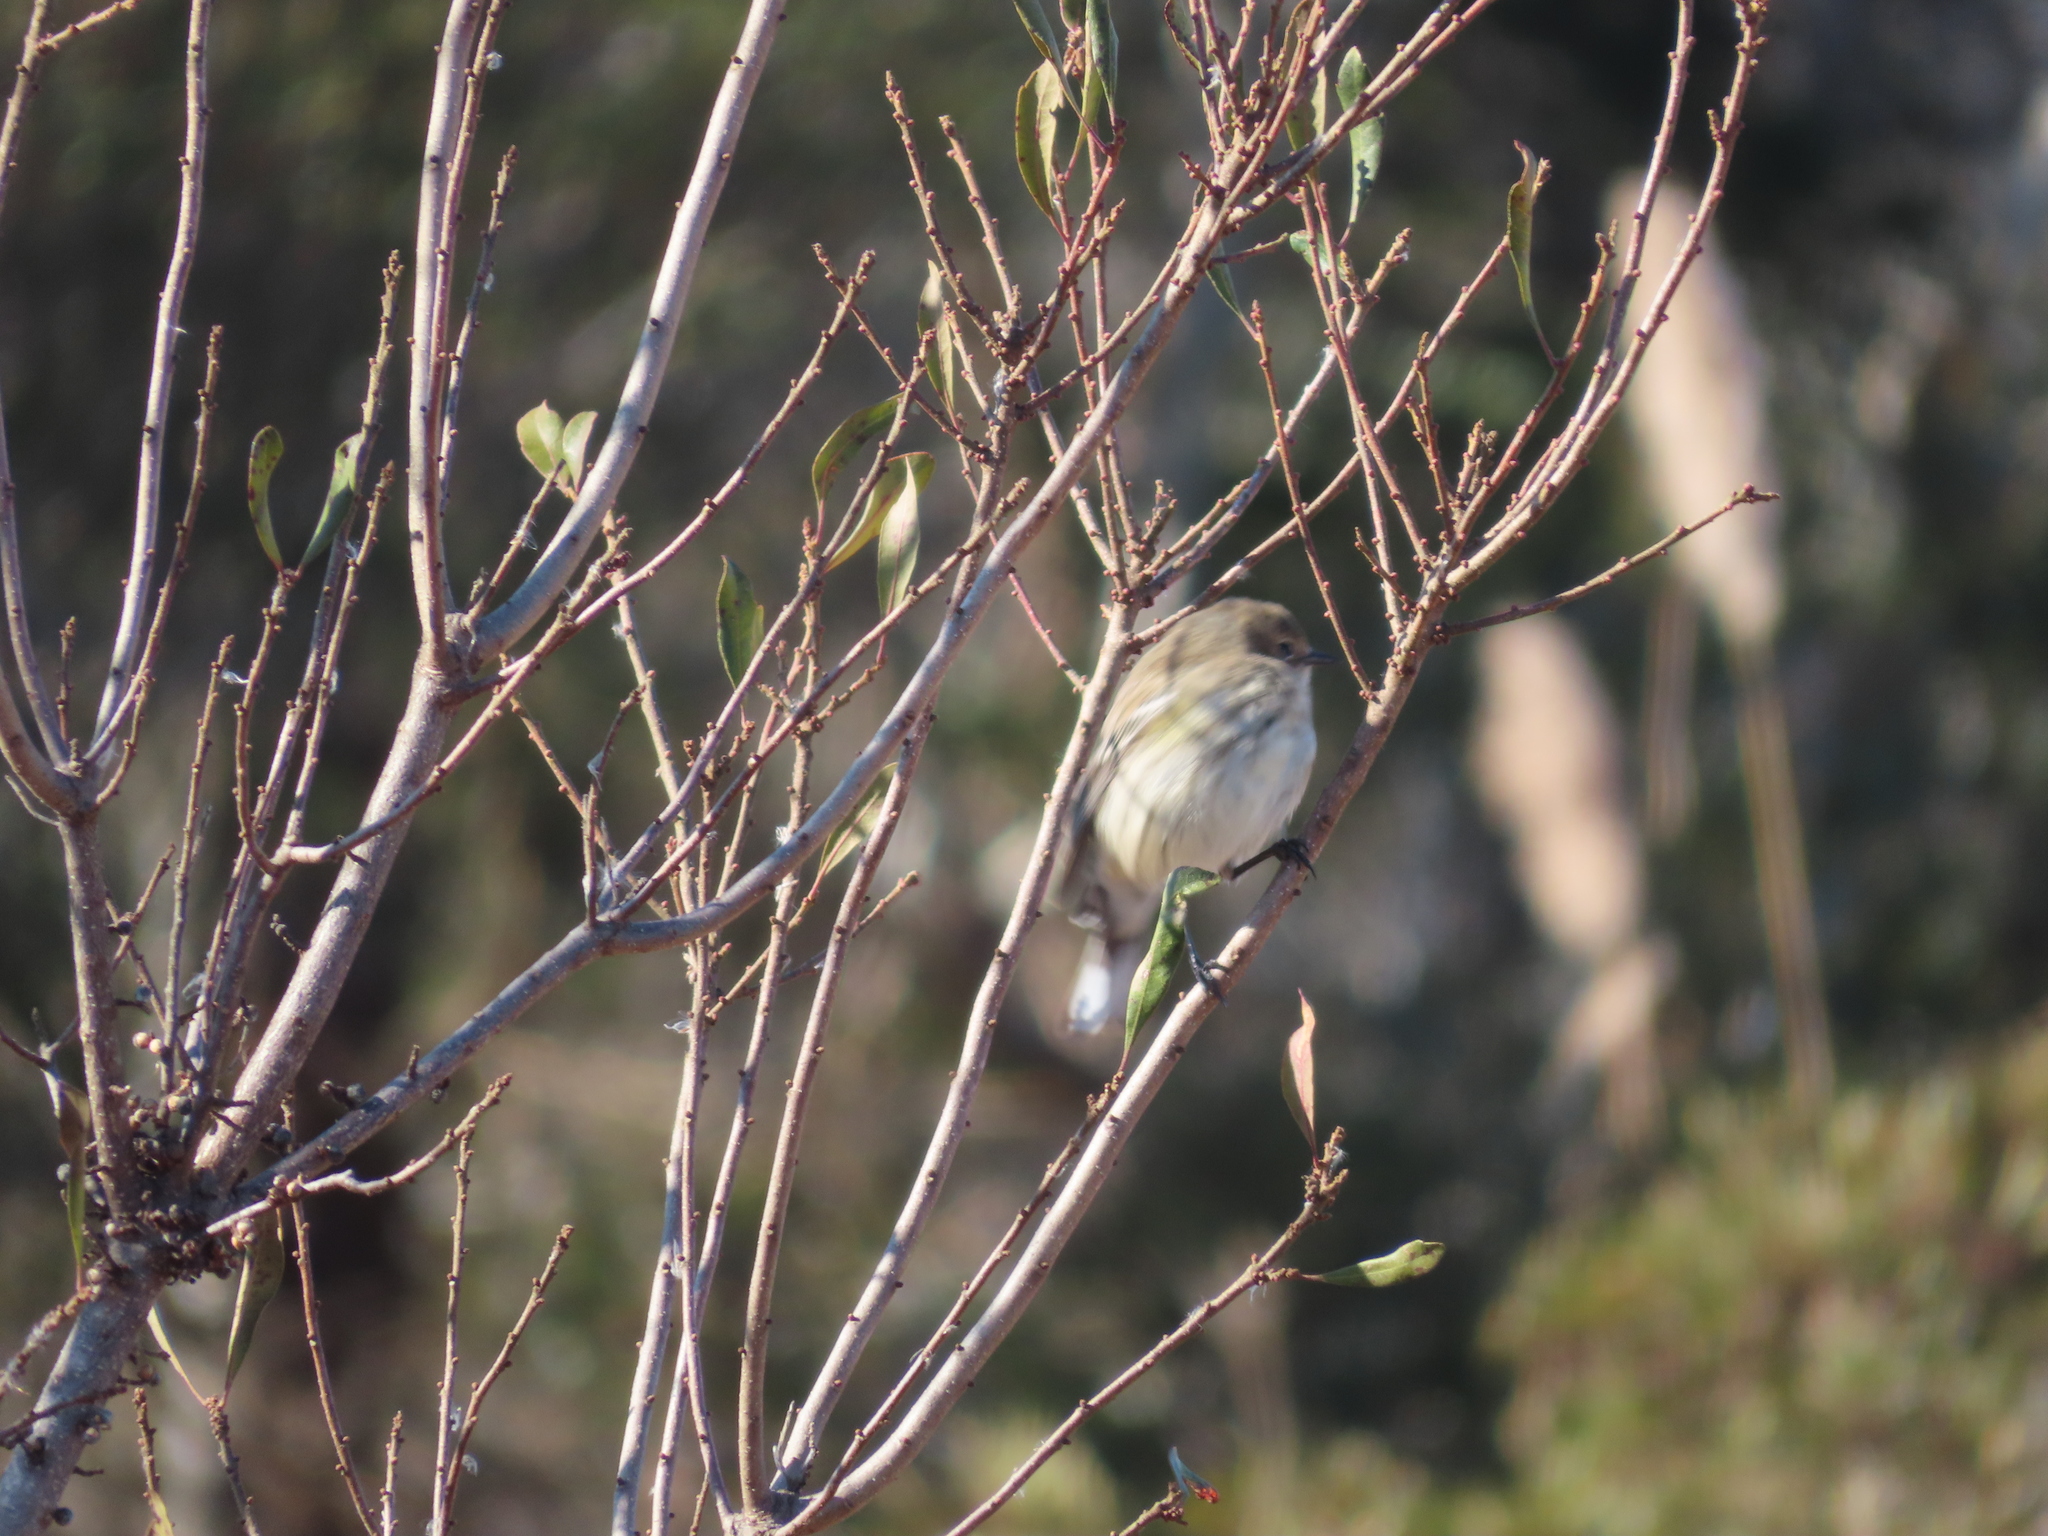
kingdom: Animalia
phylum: Chordata
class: Aves
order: Passeriformes
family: Parulidae
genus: Setophaga
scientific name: Setophaga coronata
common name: Myrtle warbler
